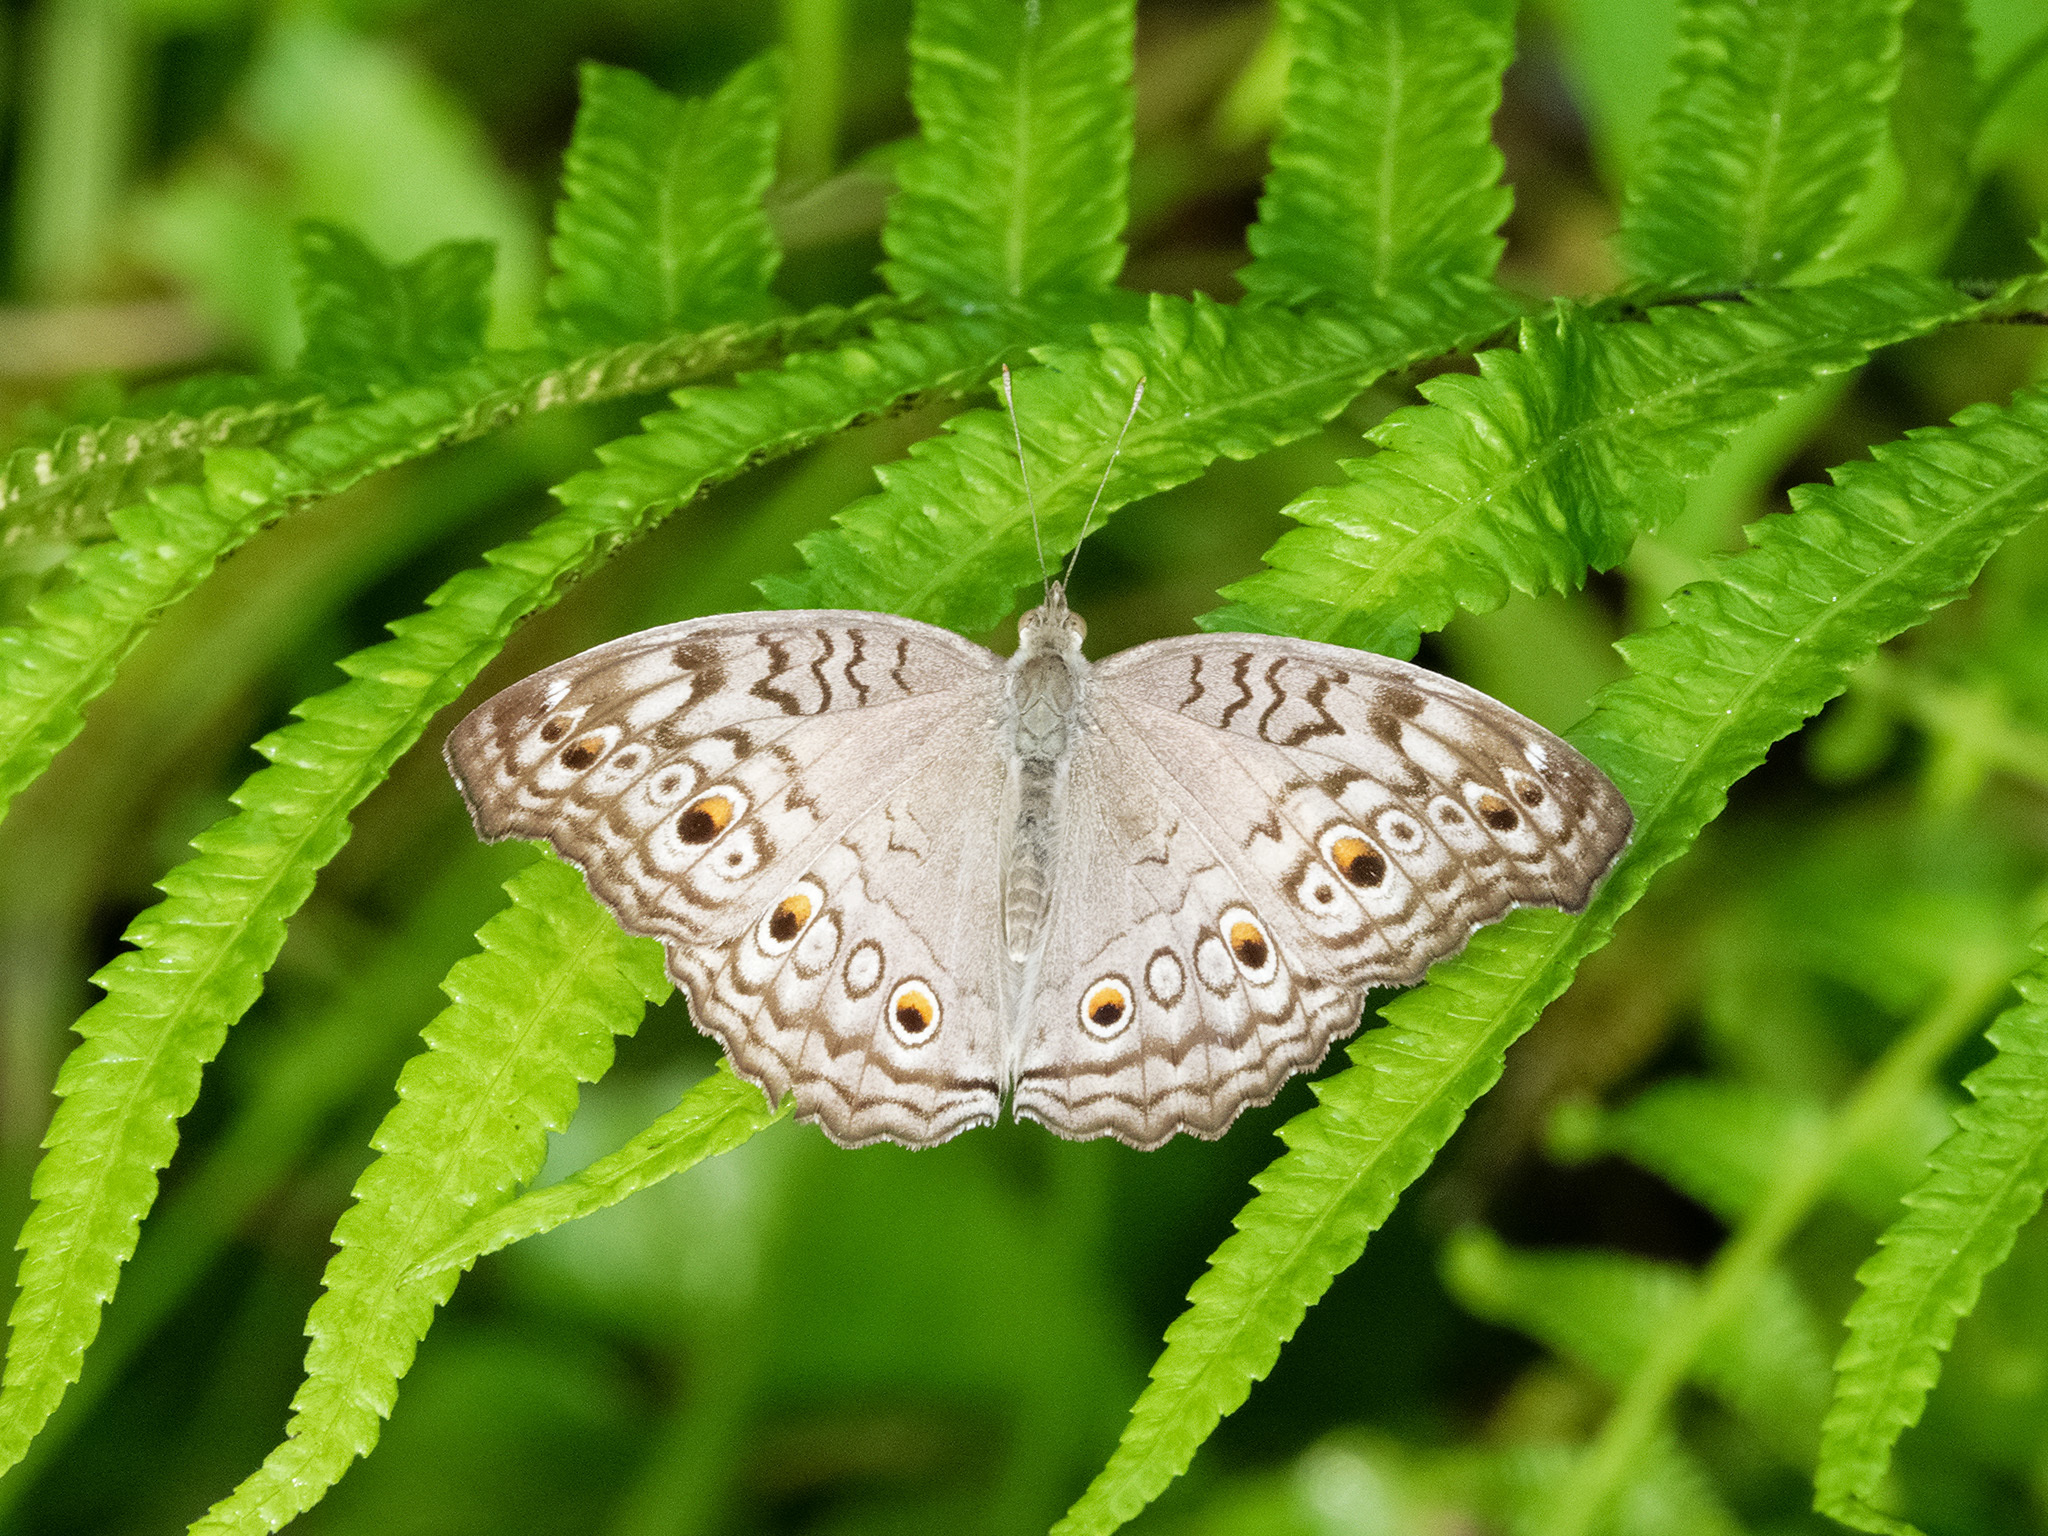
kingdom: Animalia
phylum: Arthropoda
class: Insecta
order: Lepidoptera
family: Nymphalidae
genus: Junonia
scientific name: Junonia atlites
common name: Grey pansy
